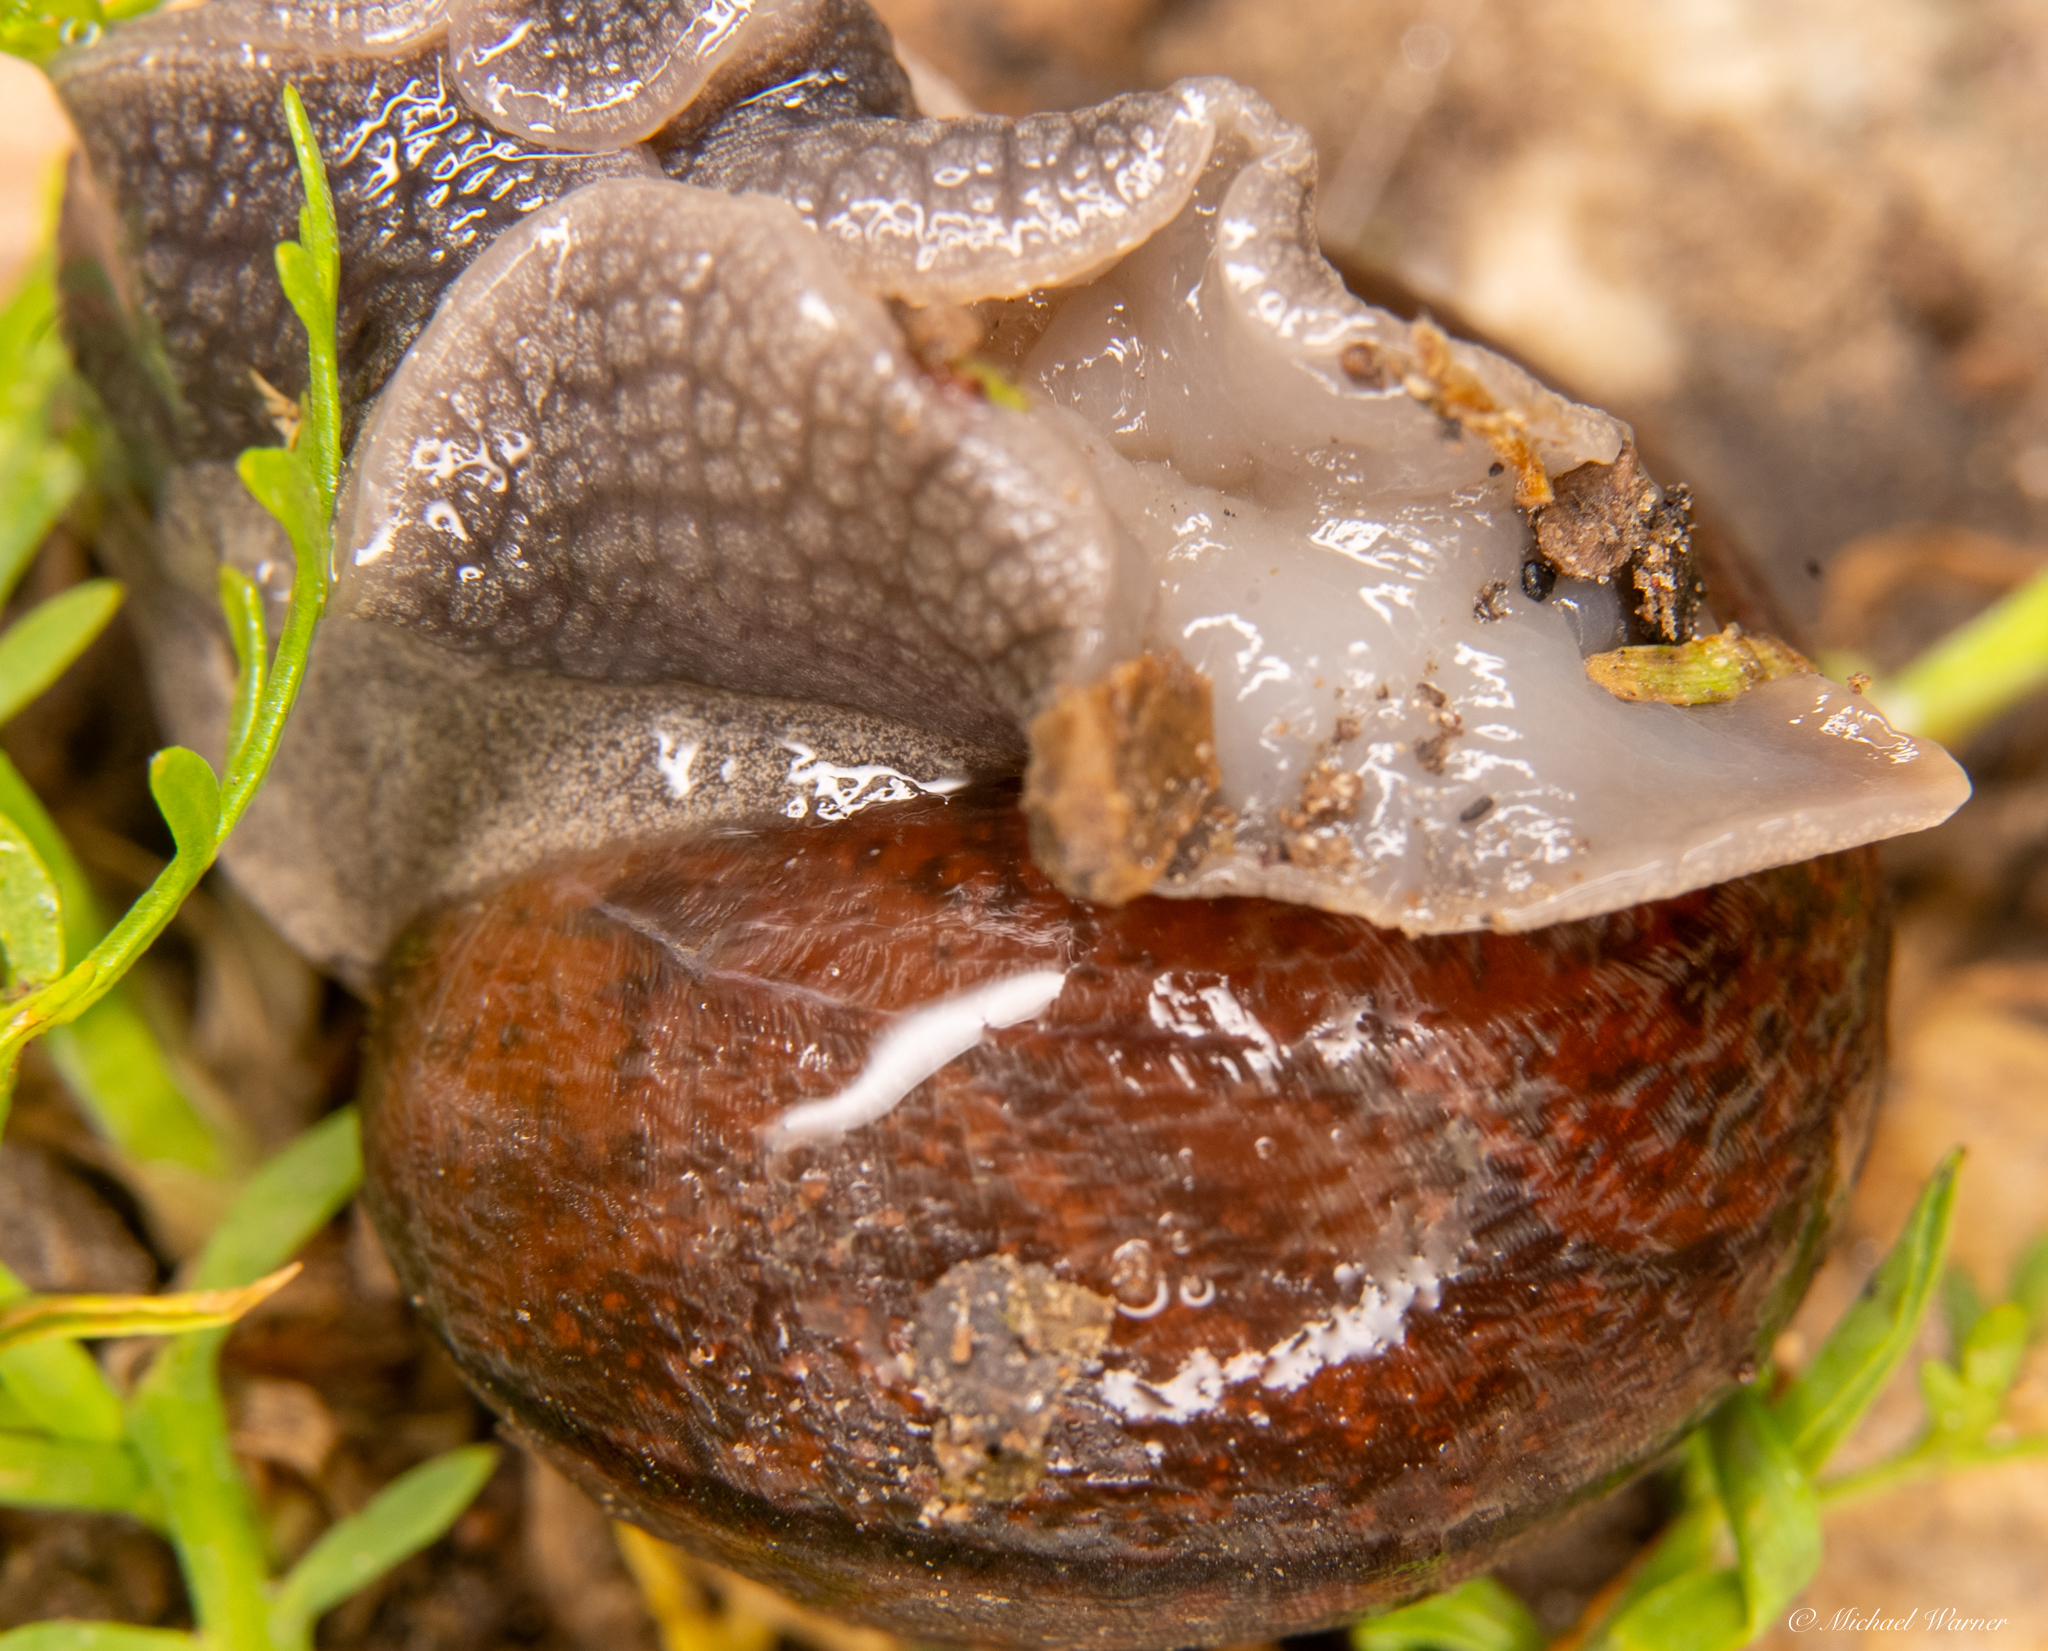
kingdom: Animalia
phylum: Mollusca
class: Gastropoda
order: Stylommatophora
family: Xanthonychidae
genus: Helminthoglypta
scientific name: Helminthoglypta nickliniana
